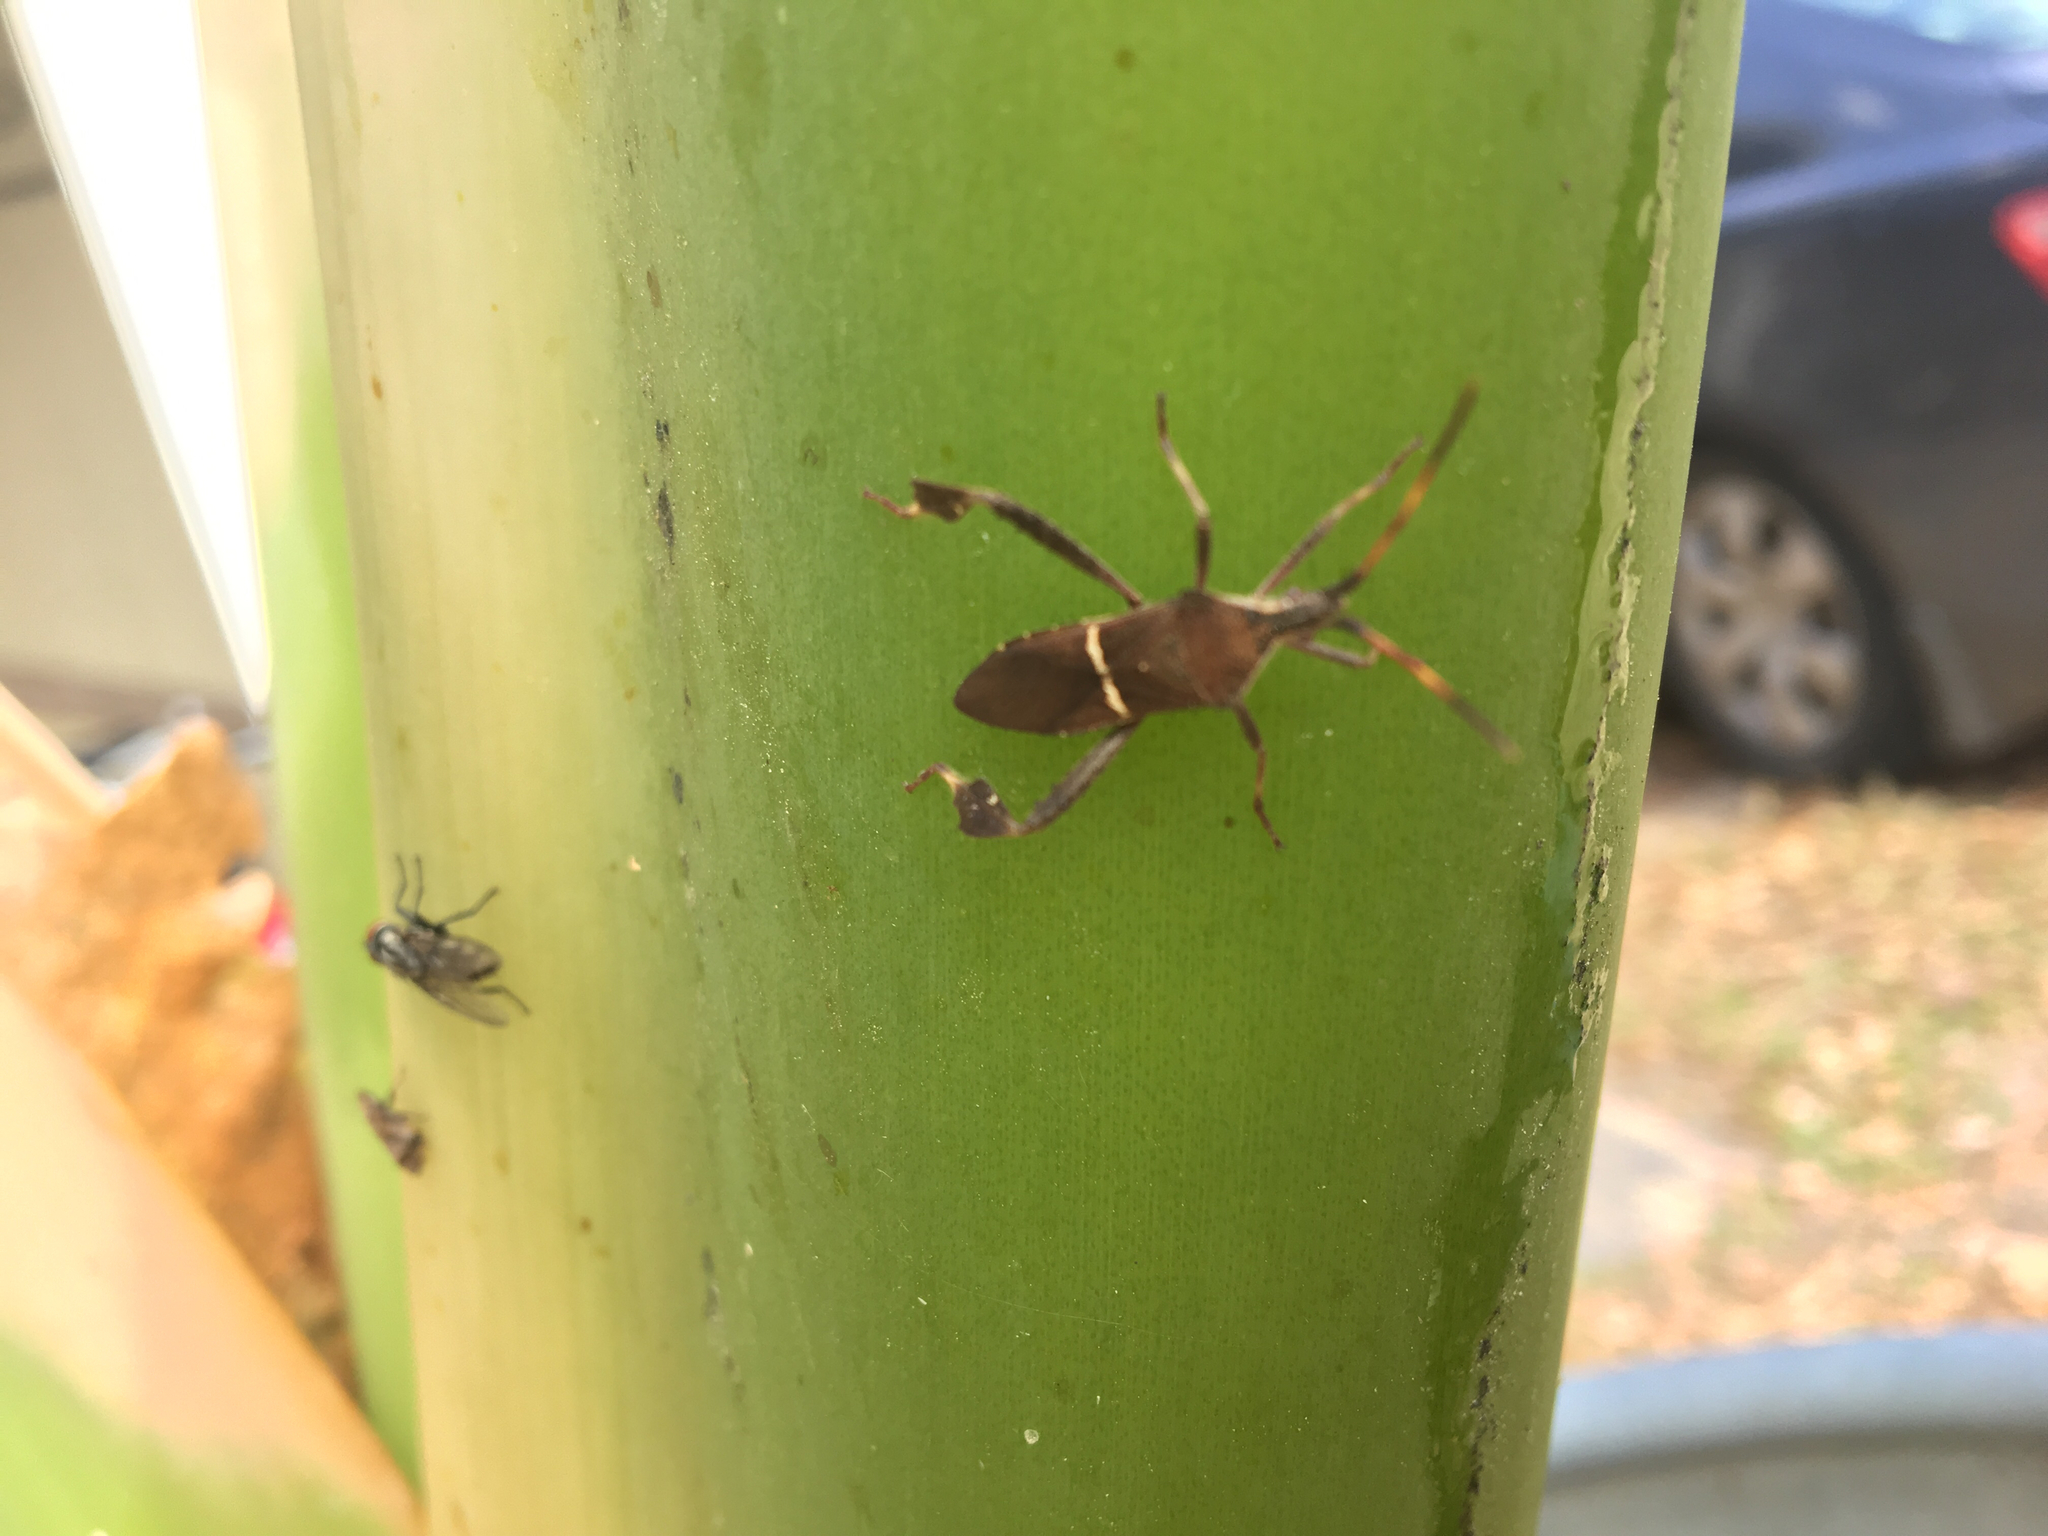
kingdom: Animalia
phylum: Arthropoda
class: Insecta
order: Hemiptera
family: Coreidae
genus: Leptoglossus
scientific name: Leptoglossus phyllopus
